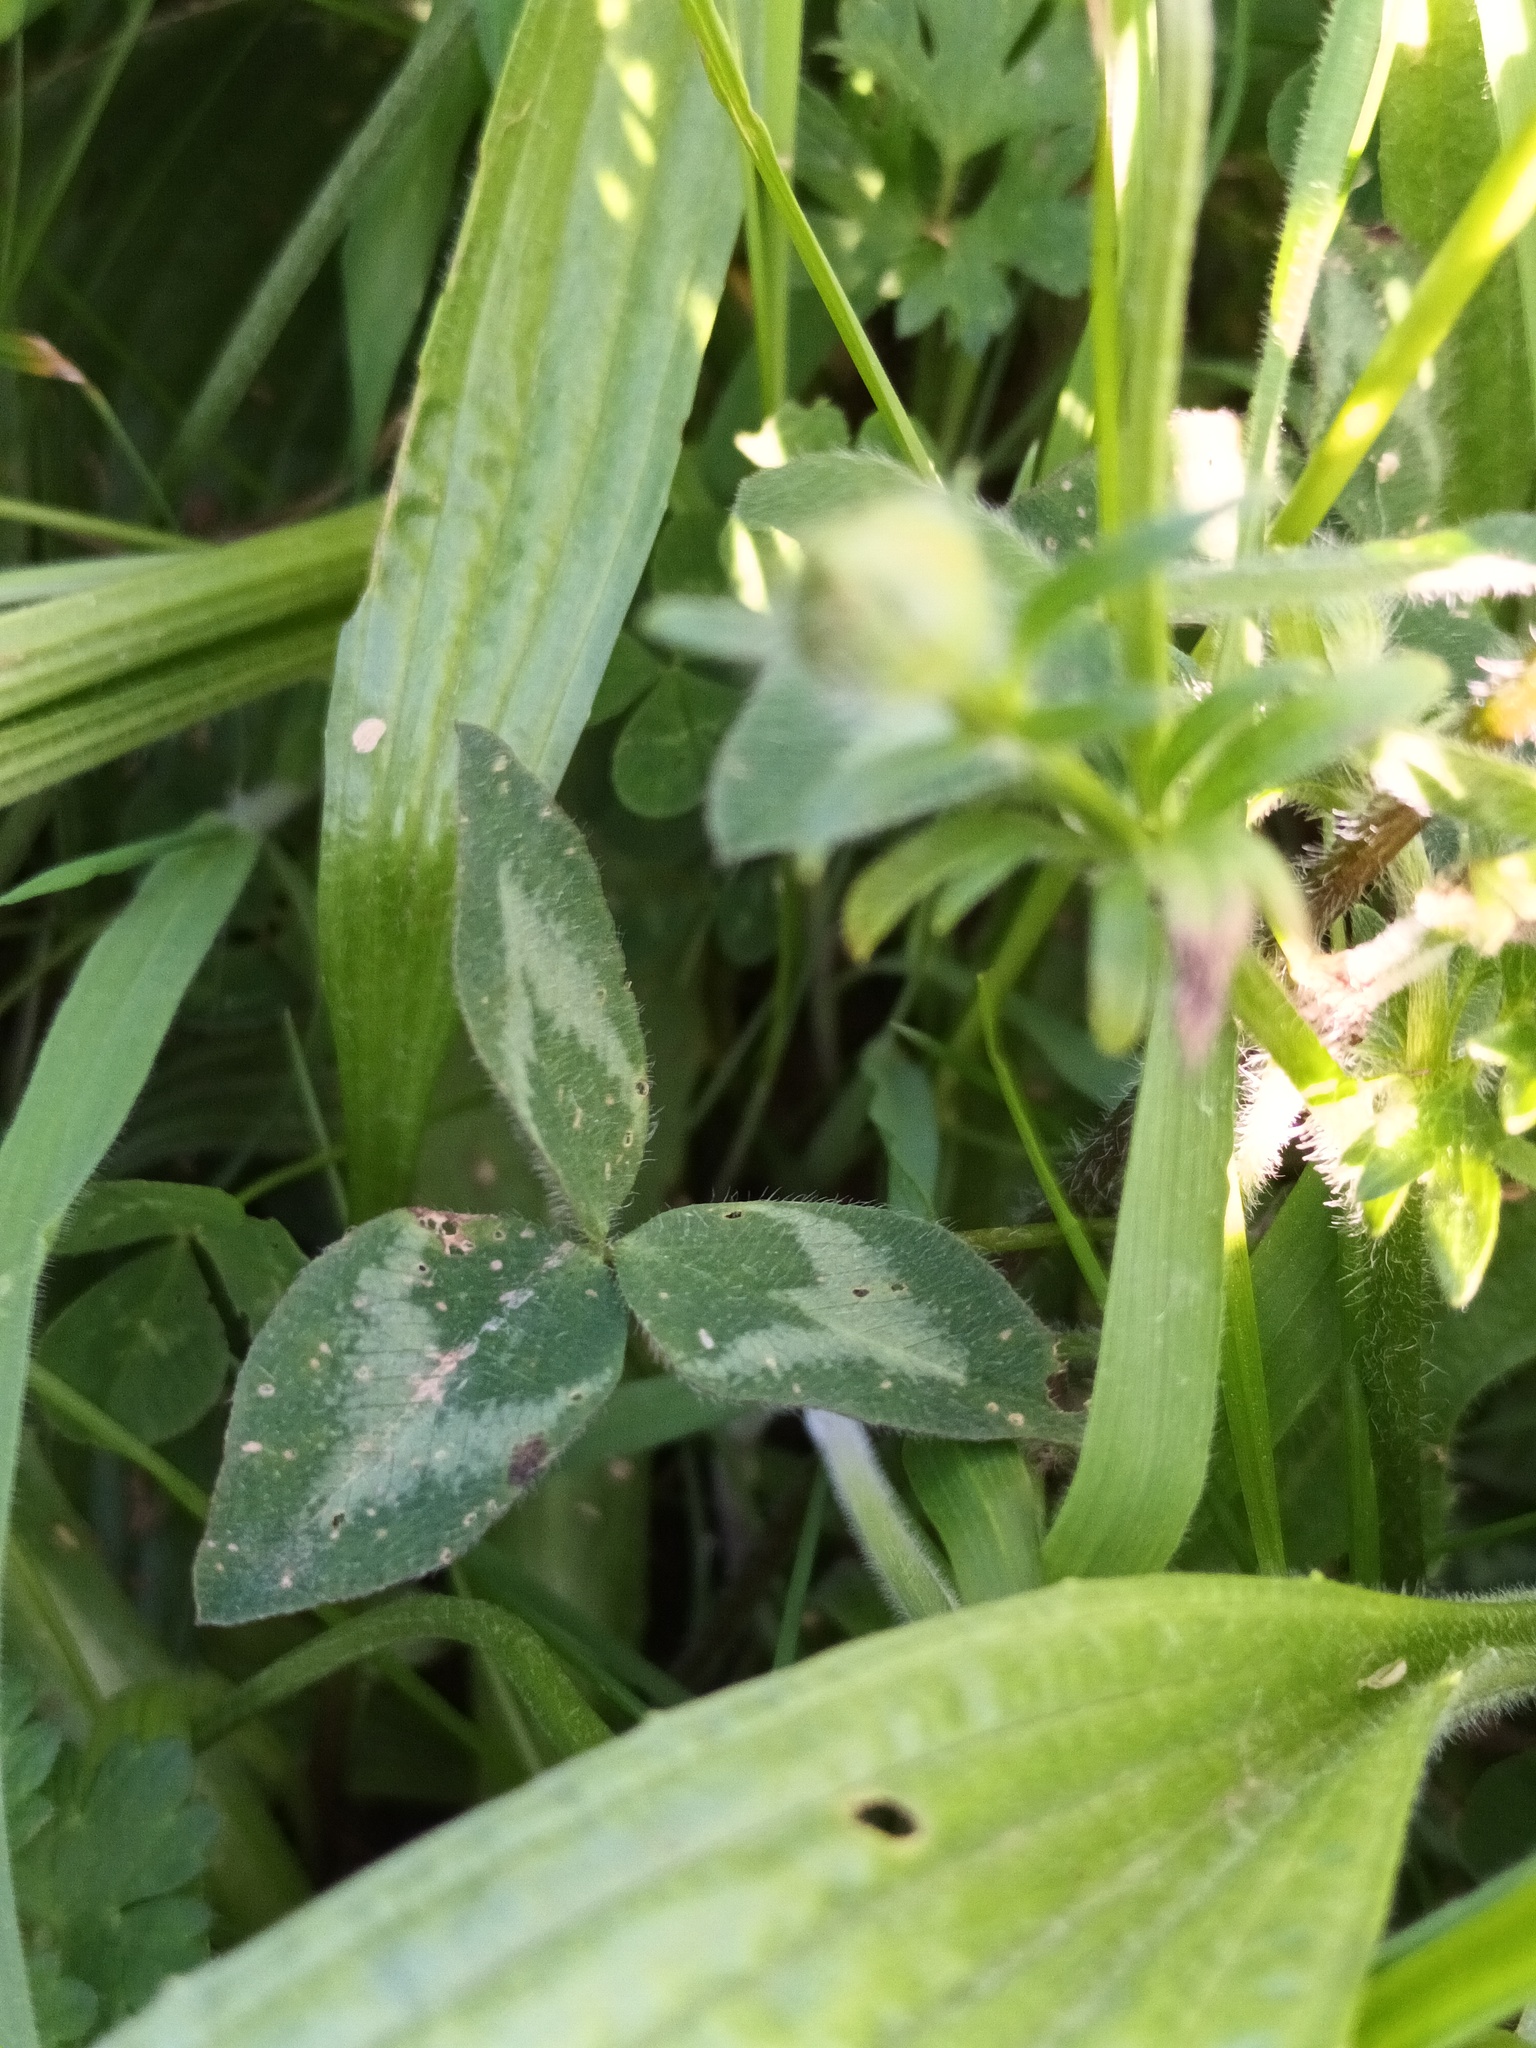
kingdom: Plantae
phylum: Tracheophyta
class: Magnoliopsida
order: Fabales
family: Fabaceae
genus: Trifolium
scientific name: Trifolium pratense
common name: Red clover
